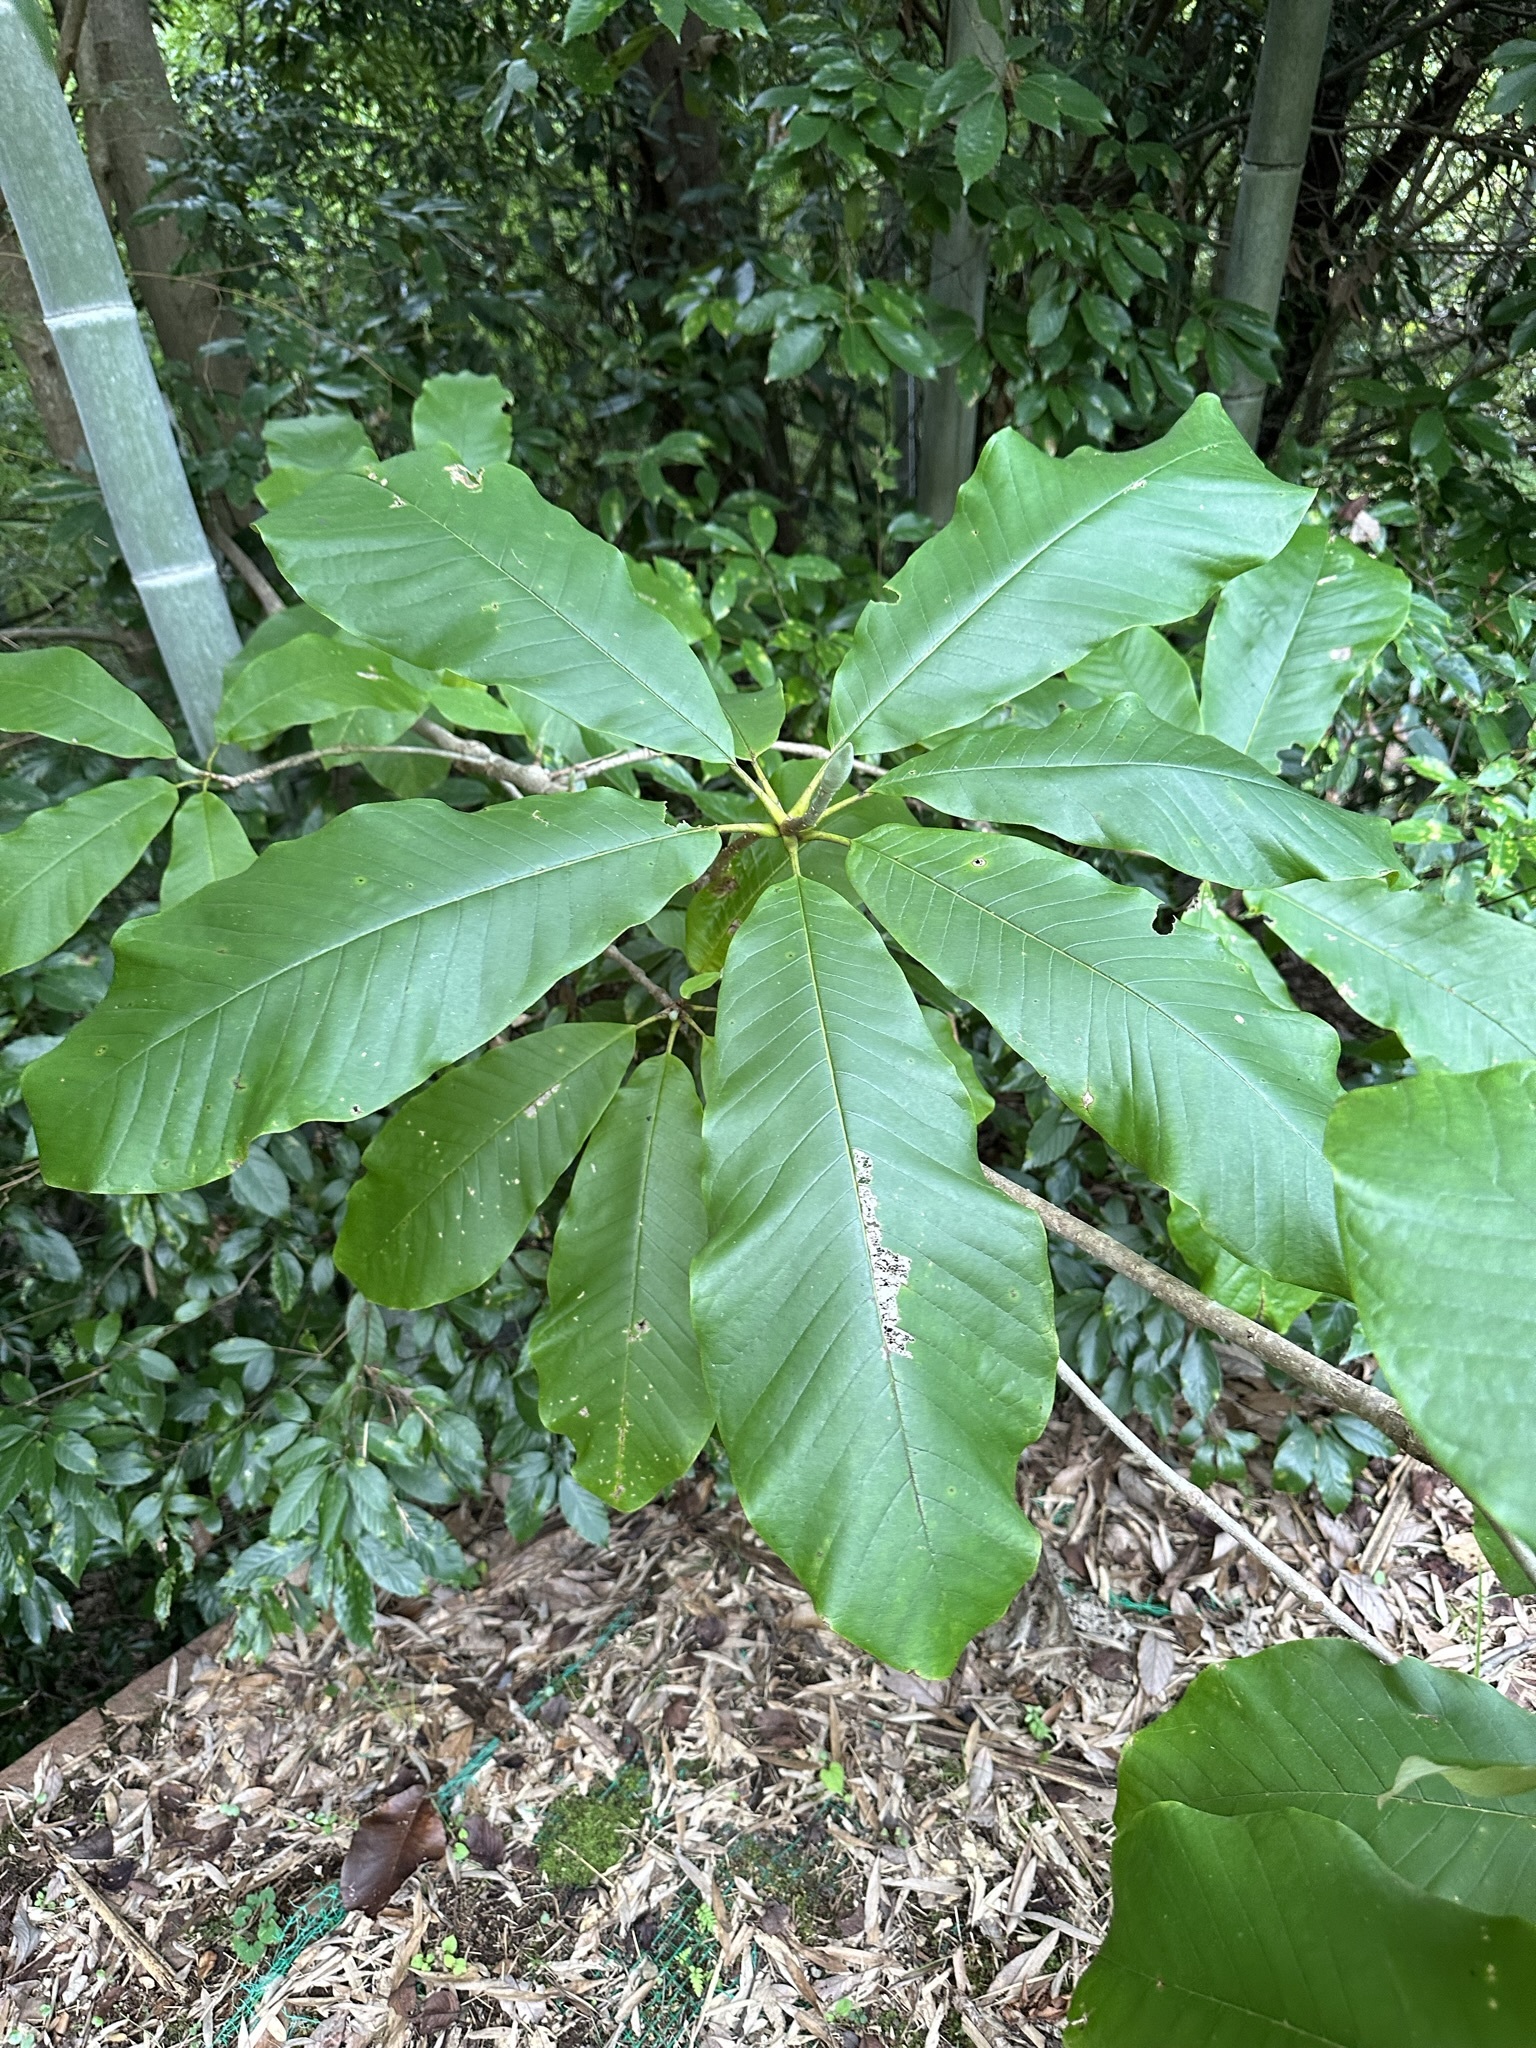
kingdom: Plantae
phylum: Tracheophyta
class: Magnoliopsida
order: Magnoliales
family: Magnoliaceae
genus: Magnolia
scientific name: Magnolia obovata
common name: Japanese whitebark magnolia
